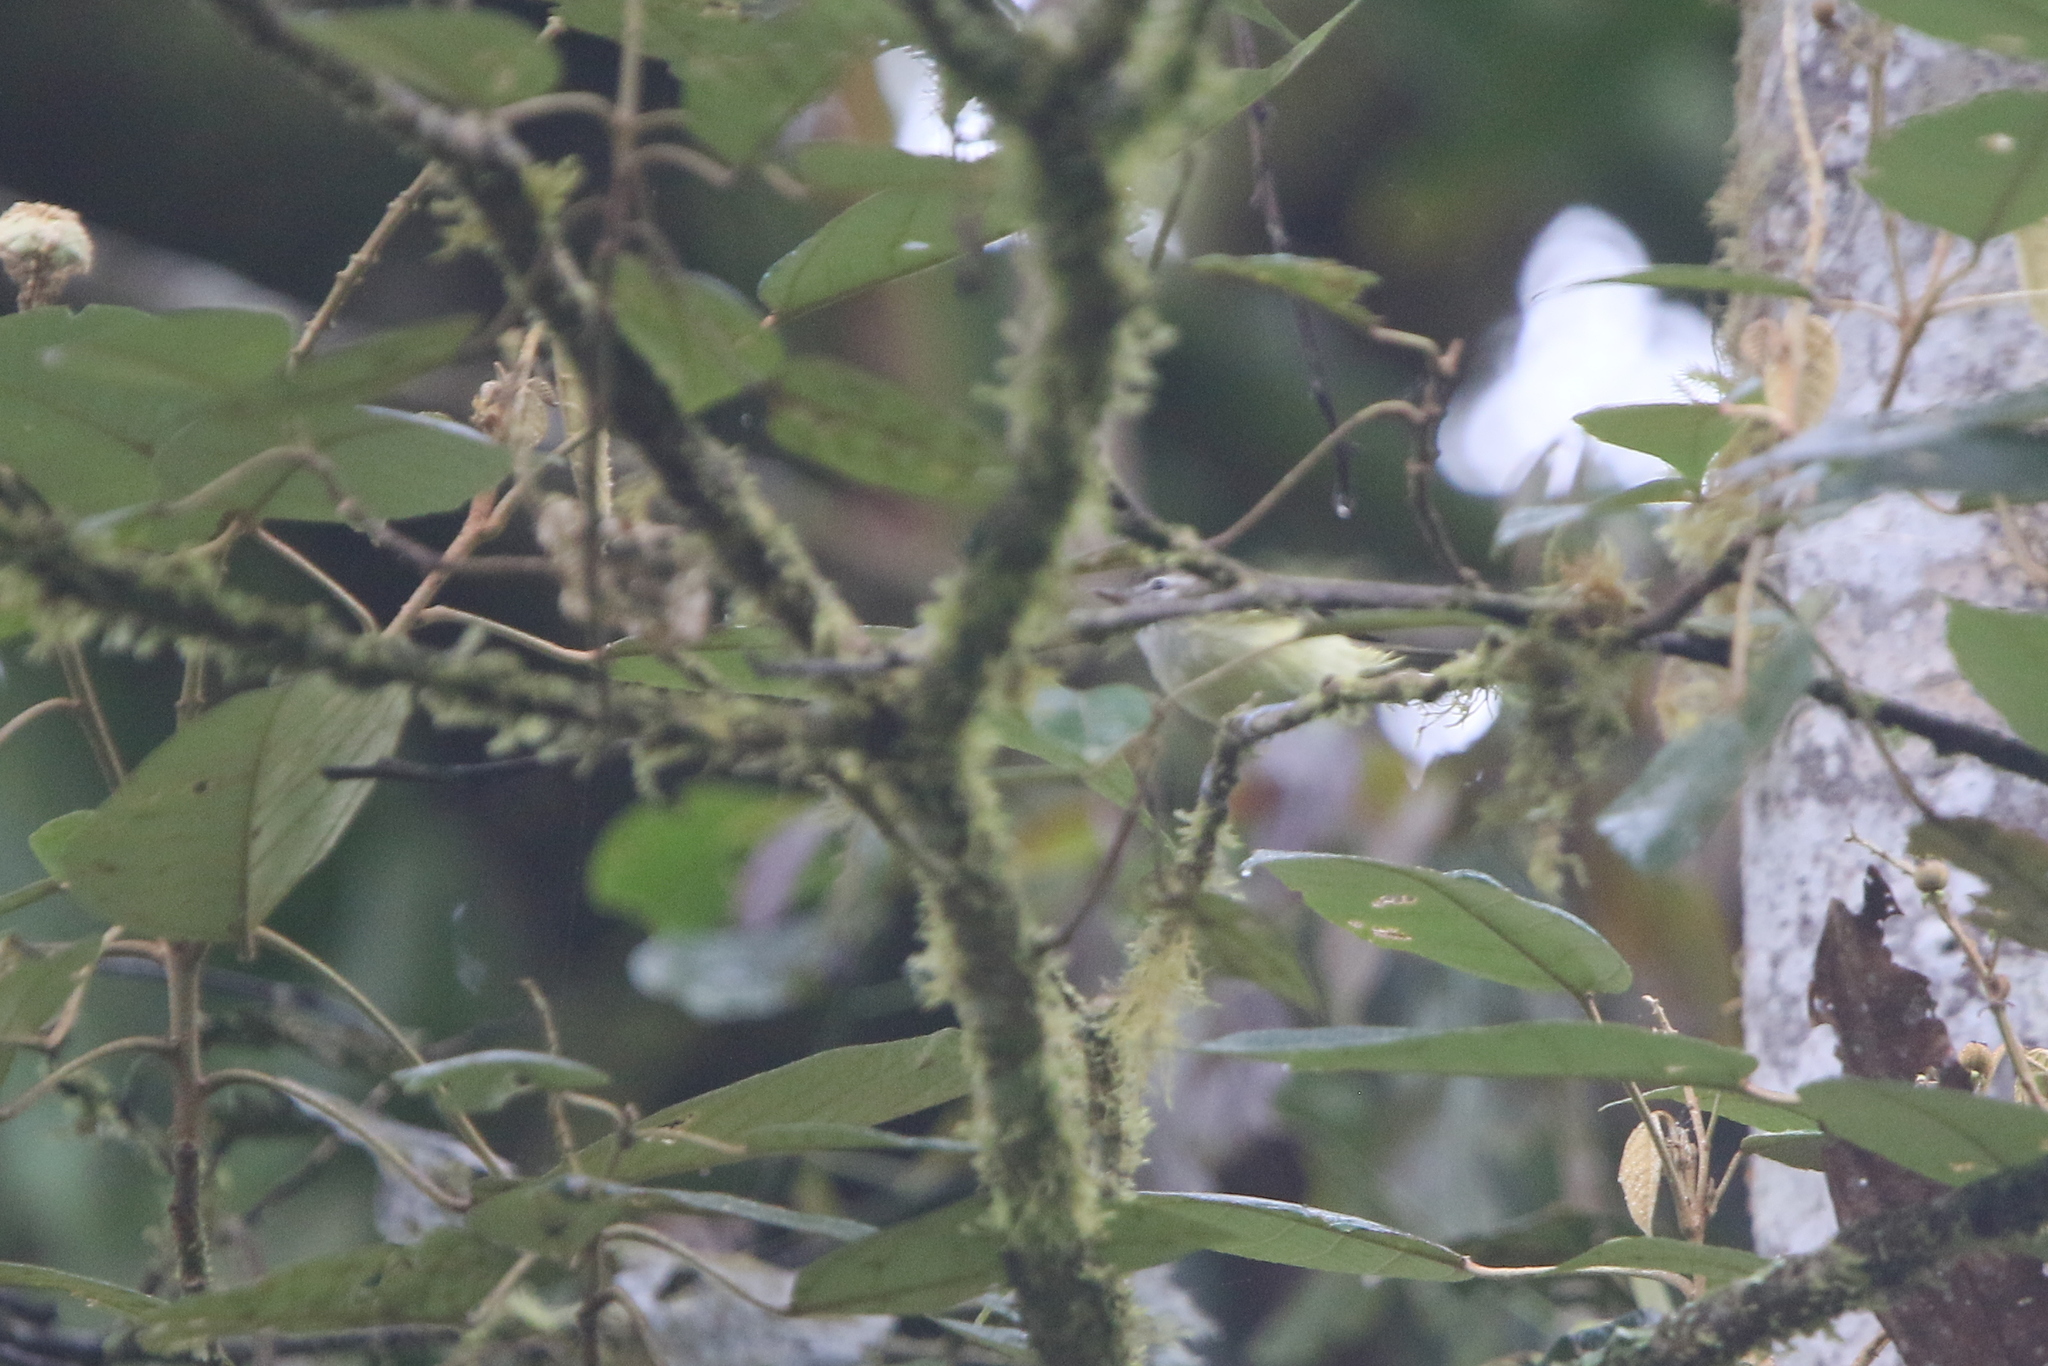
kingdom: Animalia
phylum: Chordata
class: Aves
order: Passeriformes
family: Vireonidae
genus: Vireo
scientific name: Vireo leucophrys
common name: Brown-capped vireo
